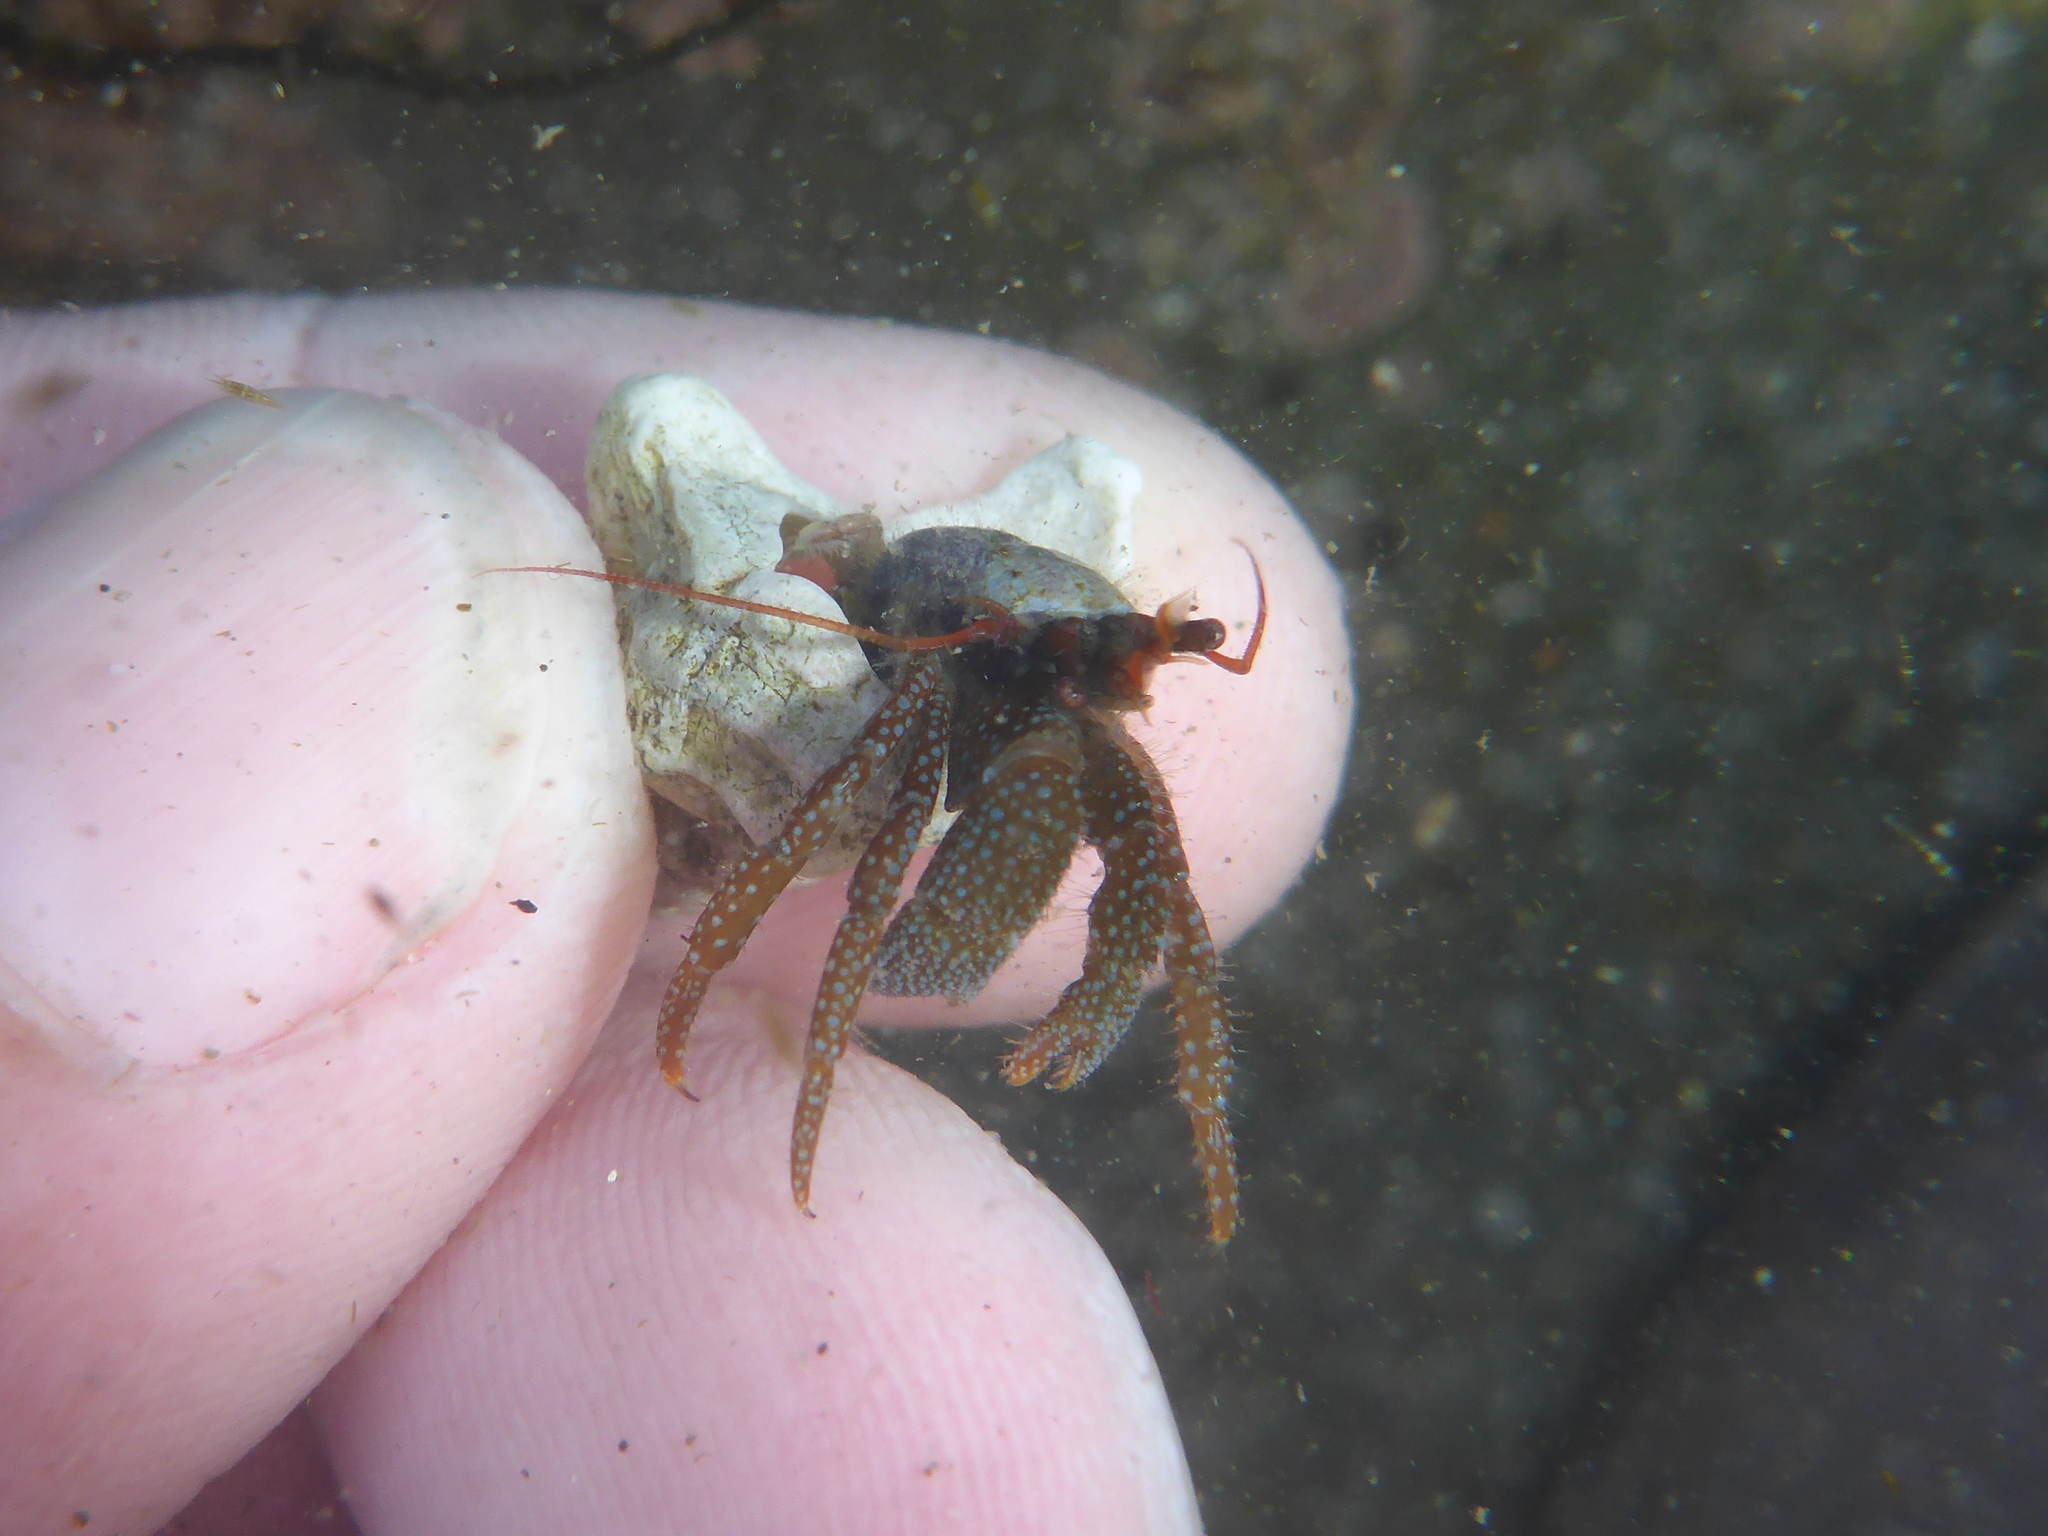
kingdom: Animalia
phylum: Arthropoda
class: Malacostraca
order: Decapoda
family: Paguridae
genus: Pagurus
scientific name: Pagurus granosimanus
